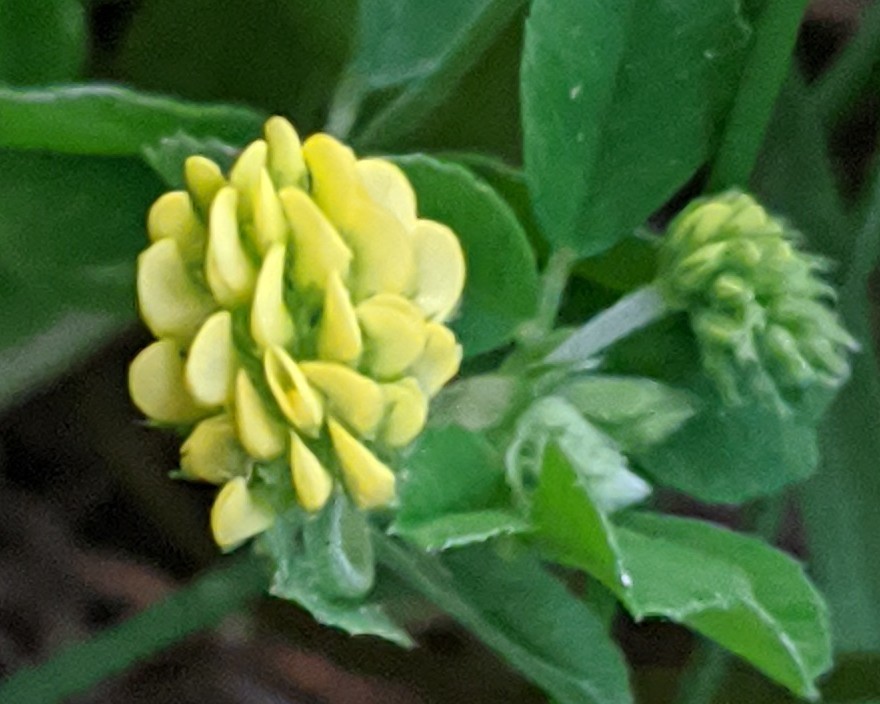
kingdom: Plantae
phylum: Tracheophyta
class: Magnoliopsida
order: Fabales
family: Fabaceae
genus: Medicago
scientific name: Medicago lupulina
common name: Black medick
